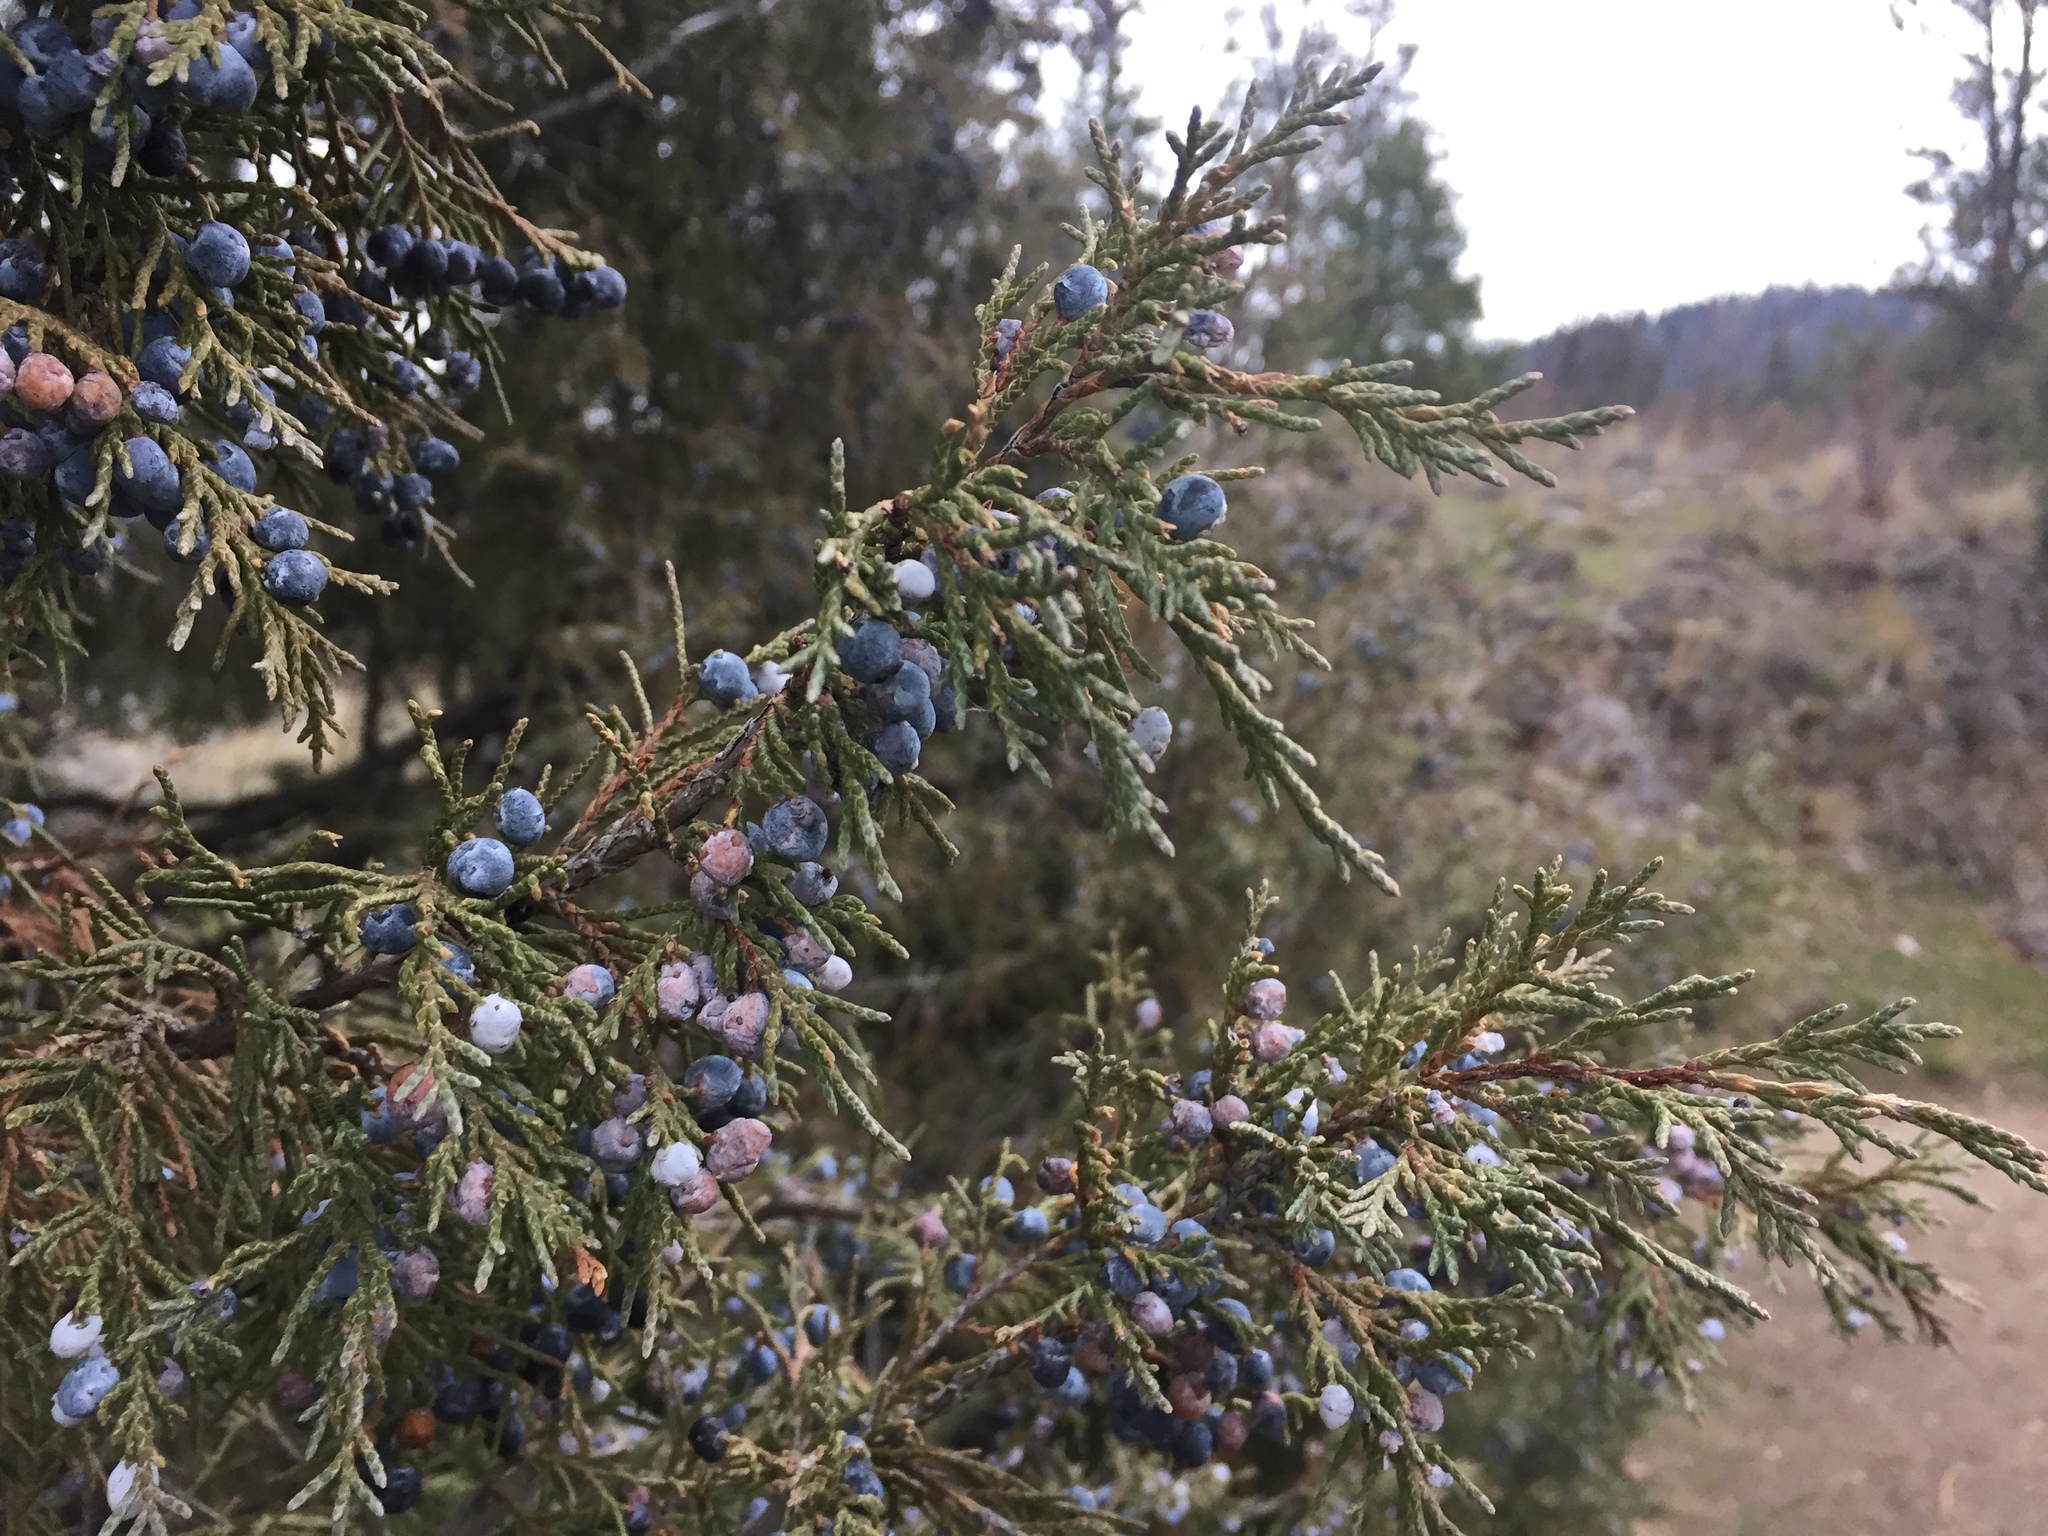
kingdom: Plantae
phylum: Tracheophyta
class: Pinopsida
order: Pinales
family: Cupressaceae
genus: Juniperus
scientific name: Juniperus scopulorum
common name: Rocky mountain juniper
